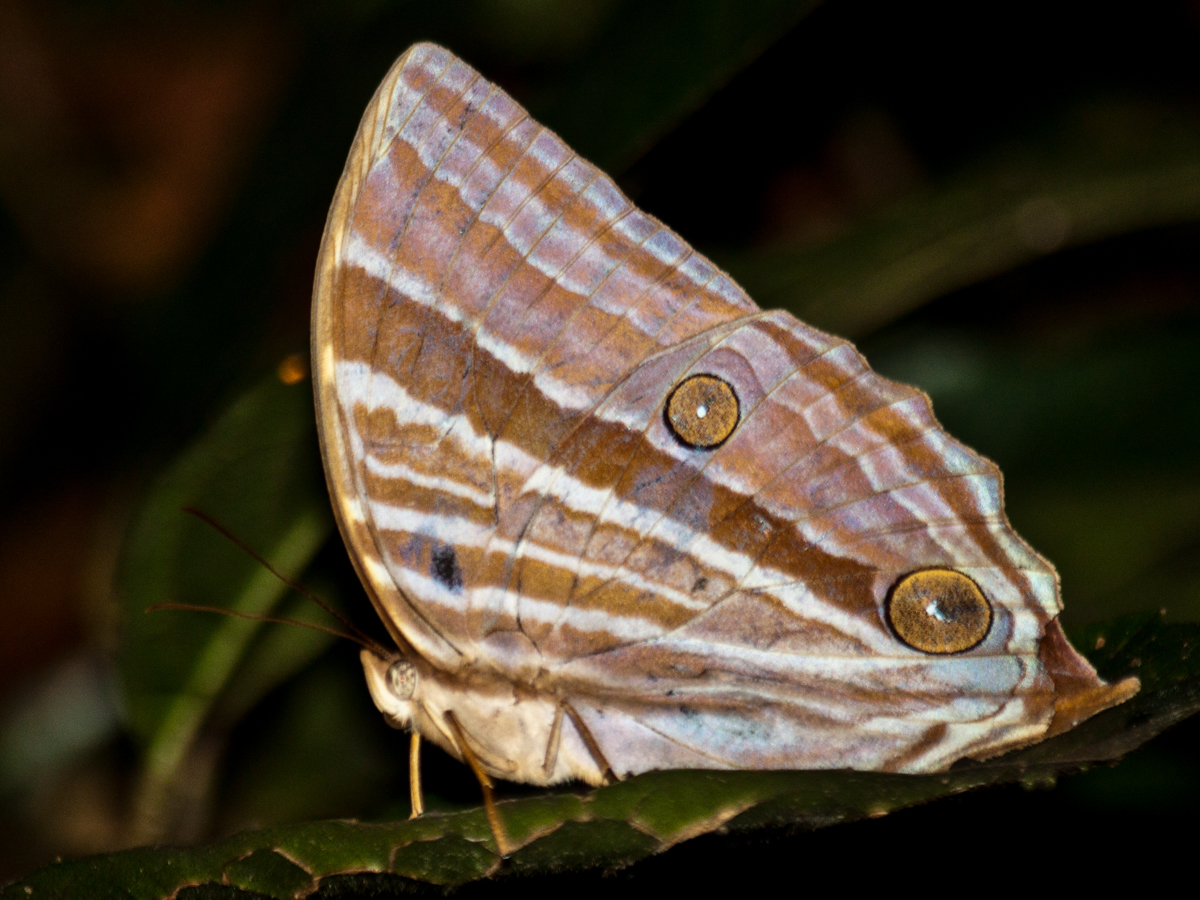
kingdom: Animalia
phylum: Arthropoda
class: Insecta
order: Lepidoptera
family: Nymphalidae
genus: Amathusia
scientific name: Amathusia phidippus
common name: Palm king
